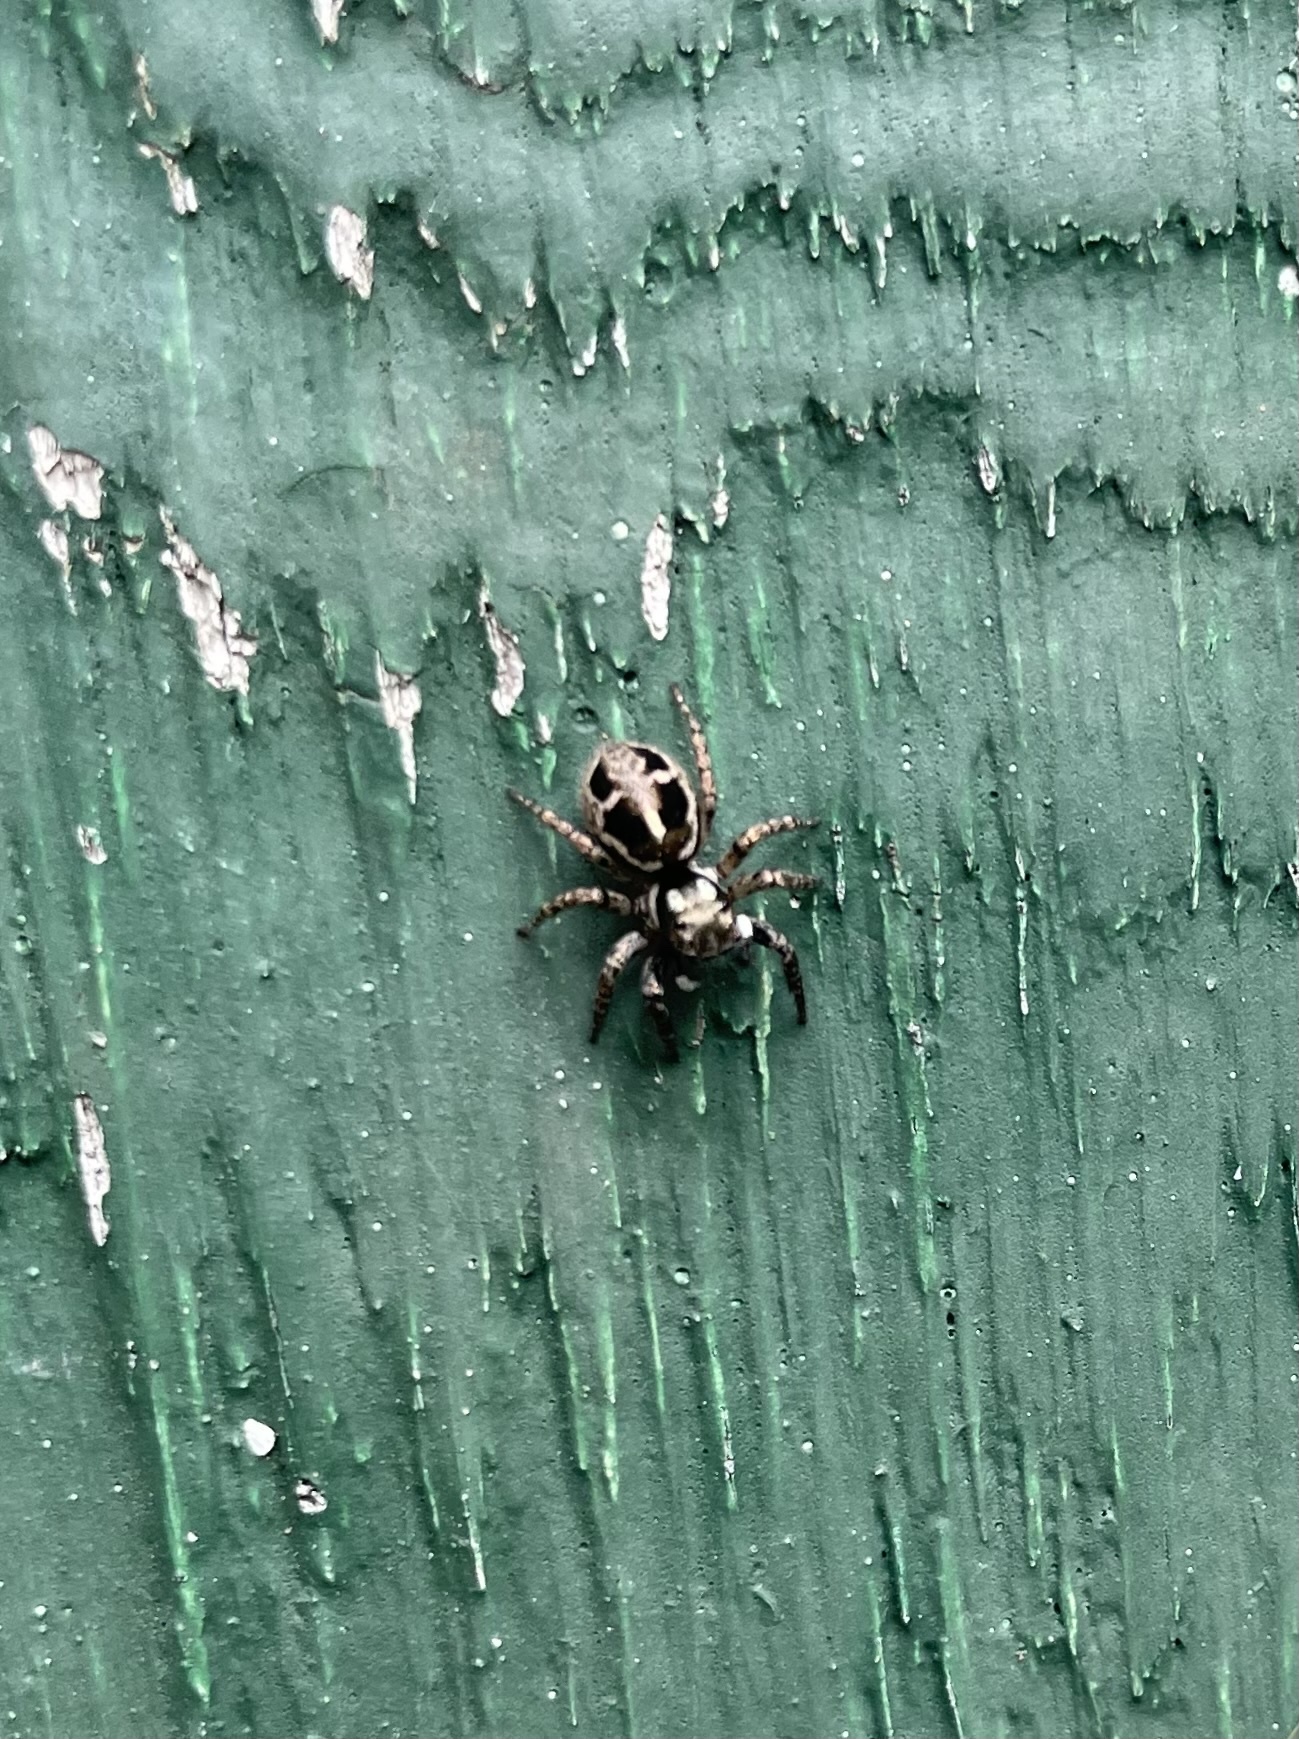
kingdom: Animalia
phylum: Arthropoda
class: Arachnida
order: Araneae
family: Salticidae
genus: Anasaitis
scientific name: Anasaitis canosa
